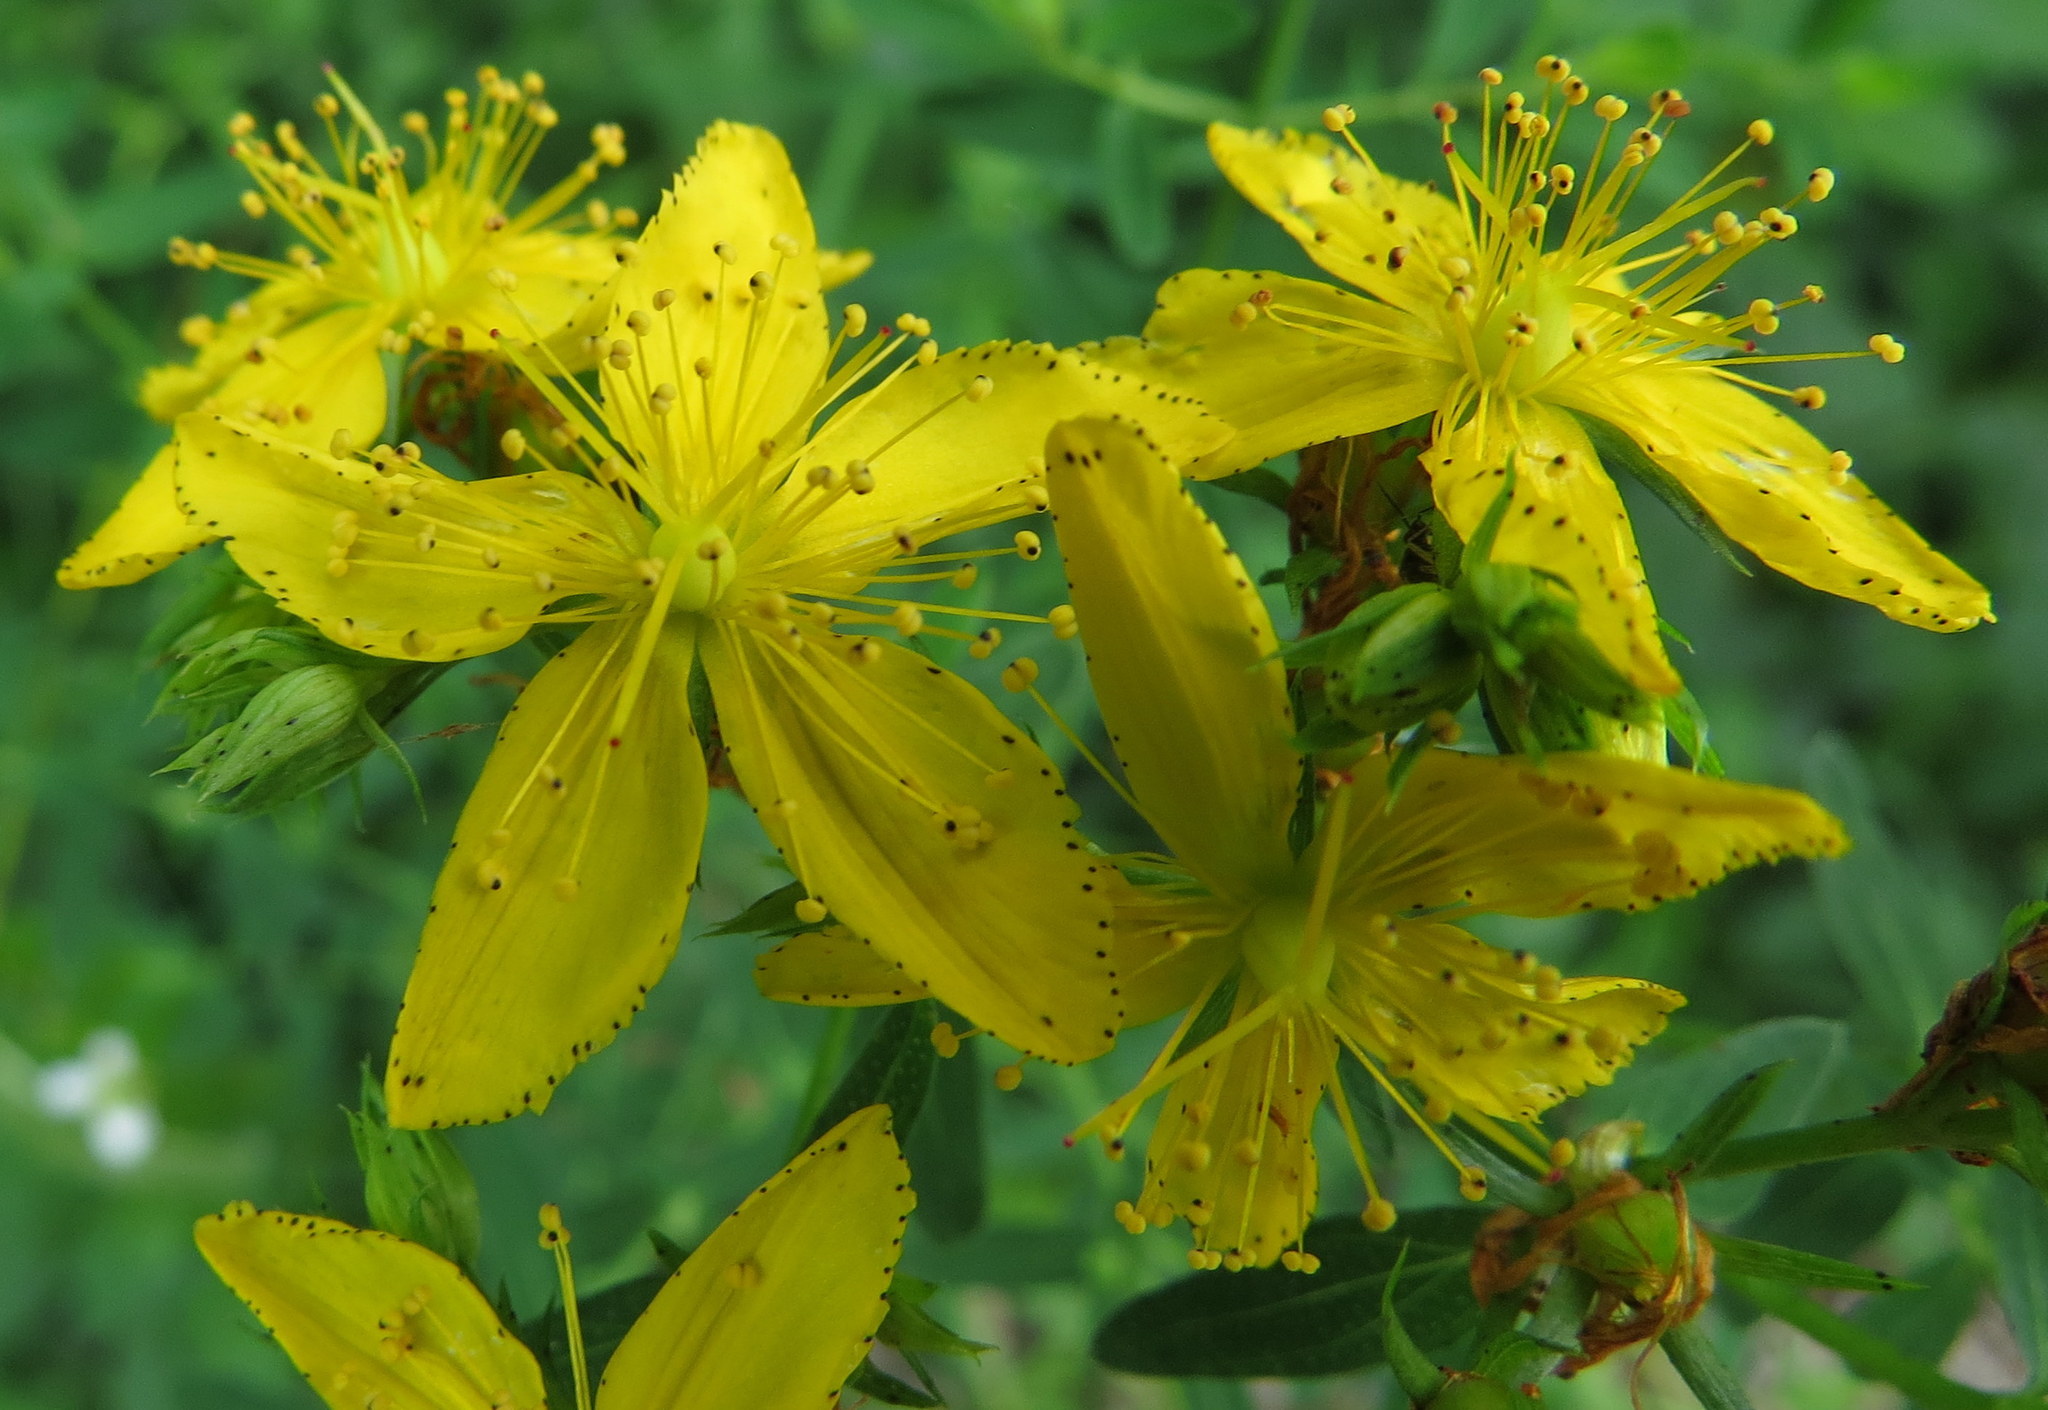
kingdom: Plantae
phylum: Tracheophyta
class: Magnoliopsida
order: Malpighiales
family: Hypericaceae
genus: Hypericum
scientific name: Hypericum perforatum
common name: Common st. johnswort
